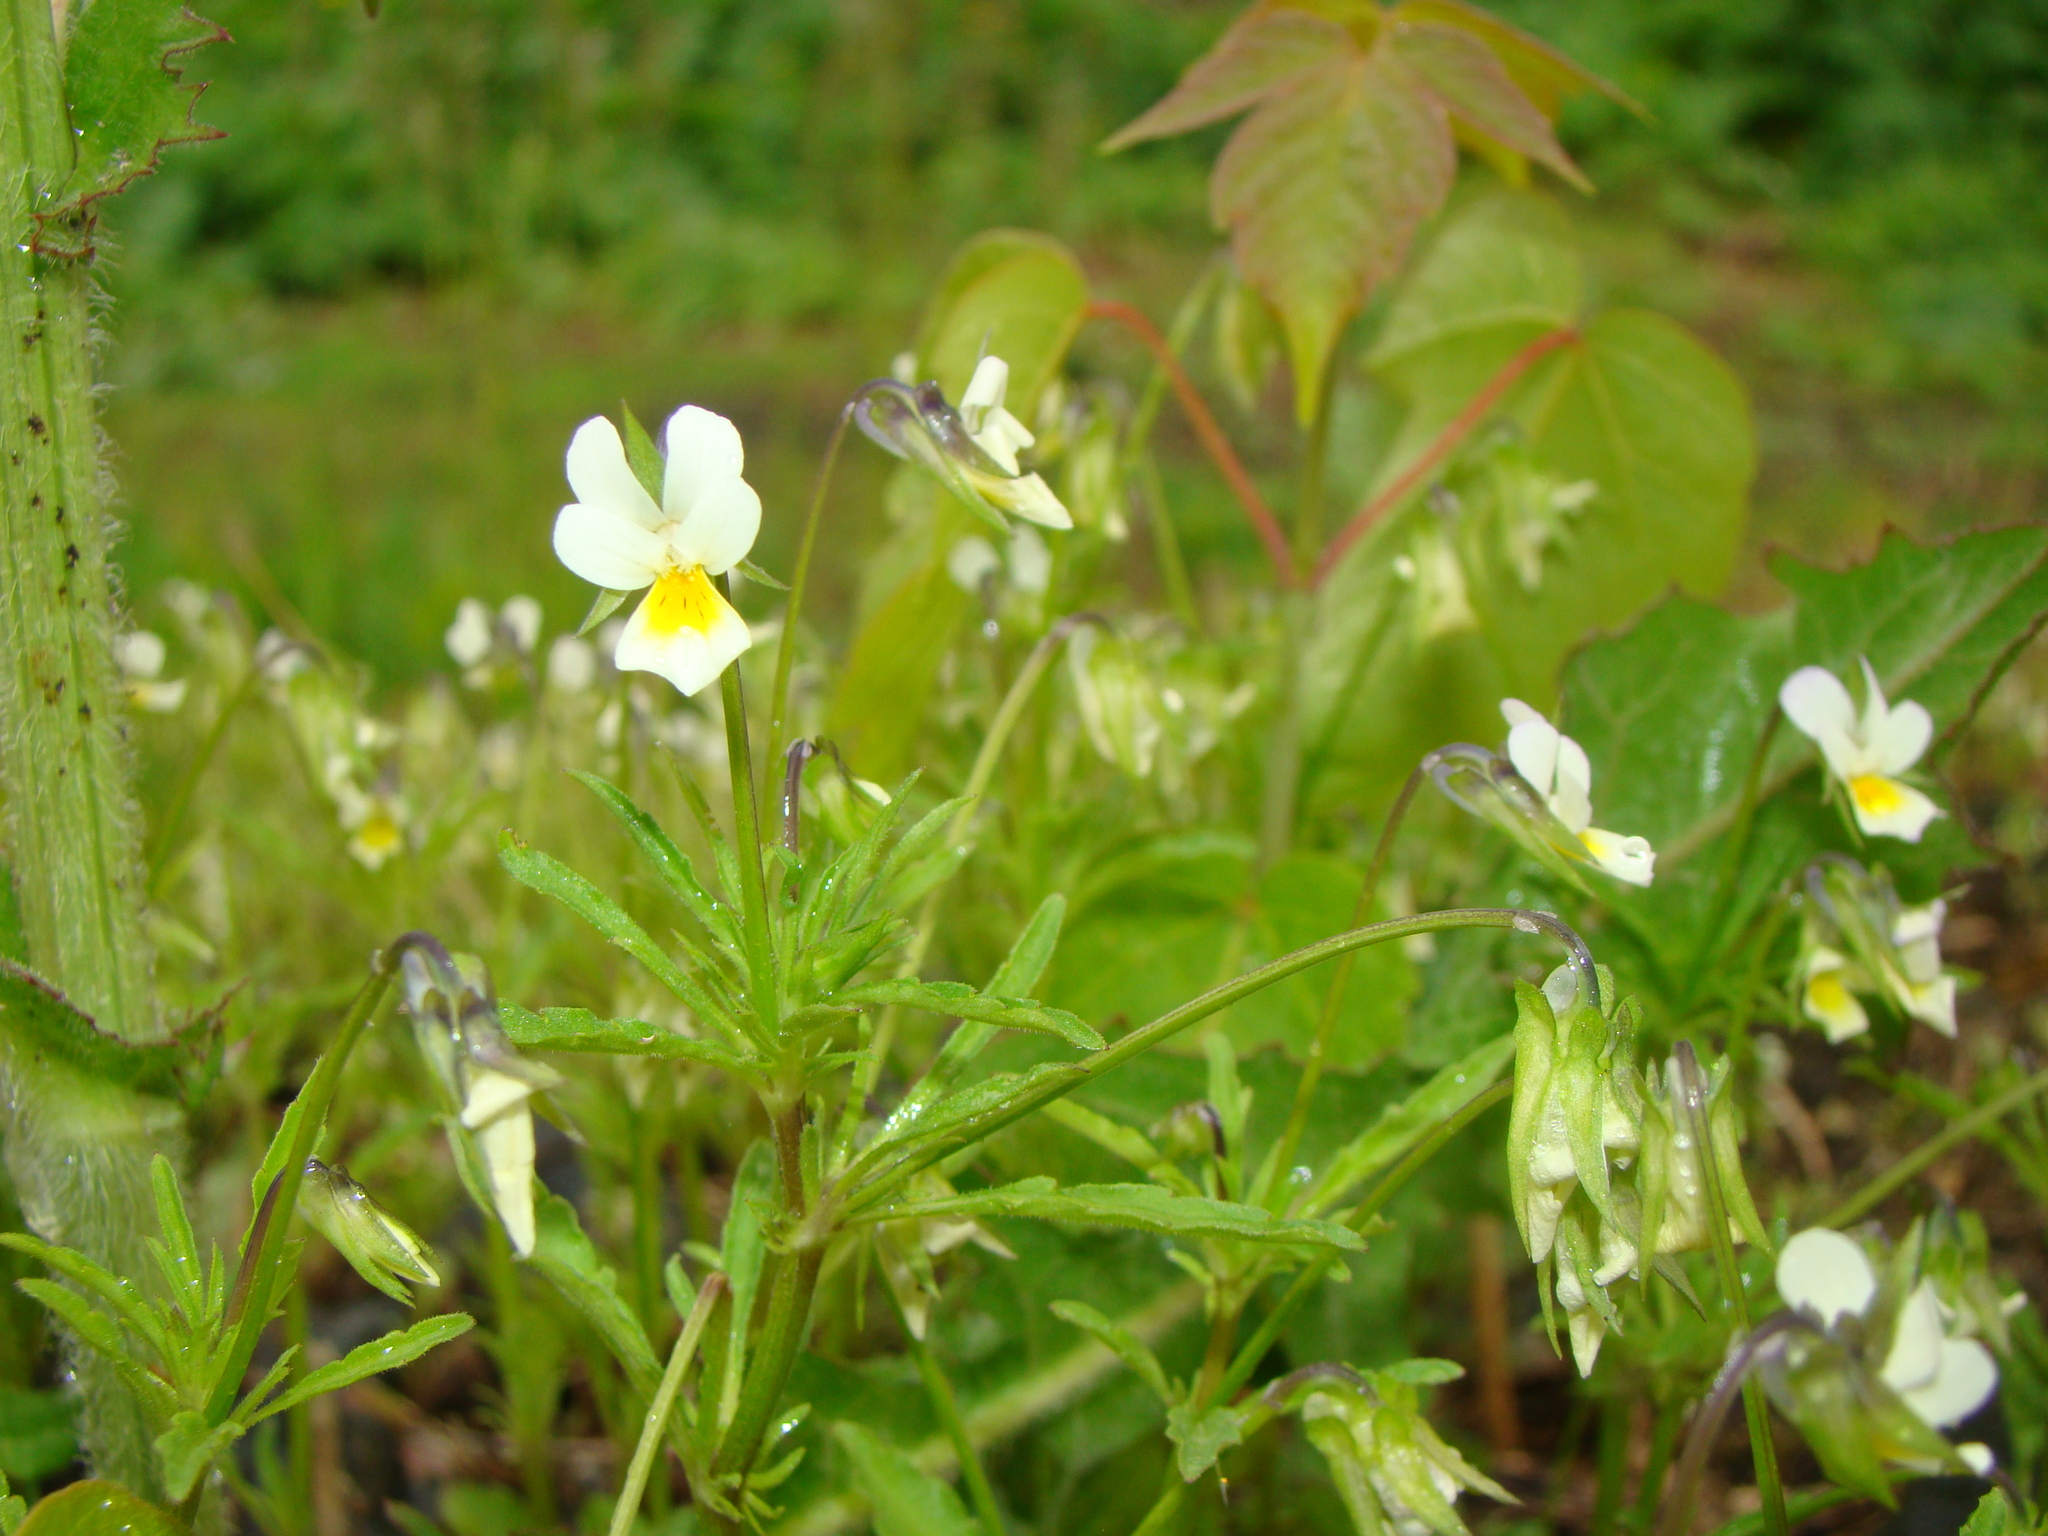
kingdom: Plantae
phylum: Tracheophyta
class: Magnoliopsida
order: Malpighiales
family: Violaceae
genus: Viola
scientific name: Viola arvensis
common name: Field pansy
